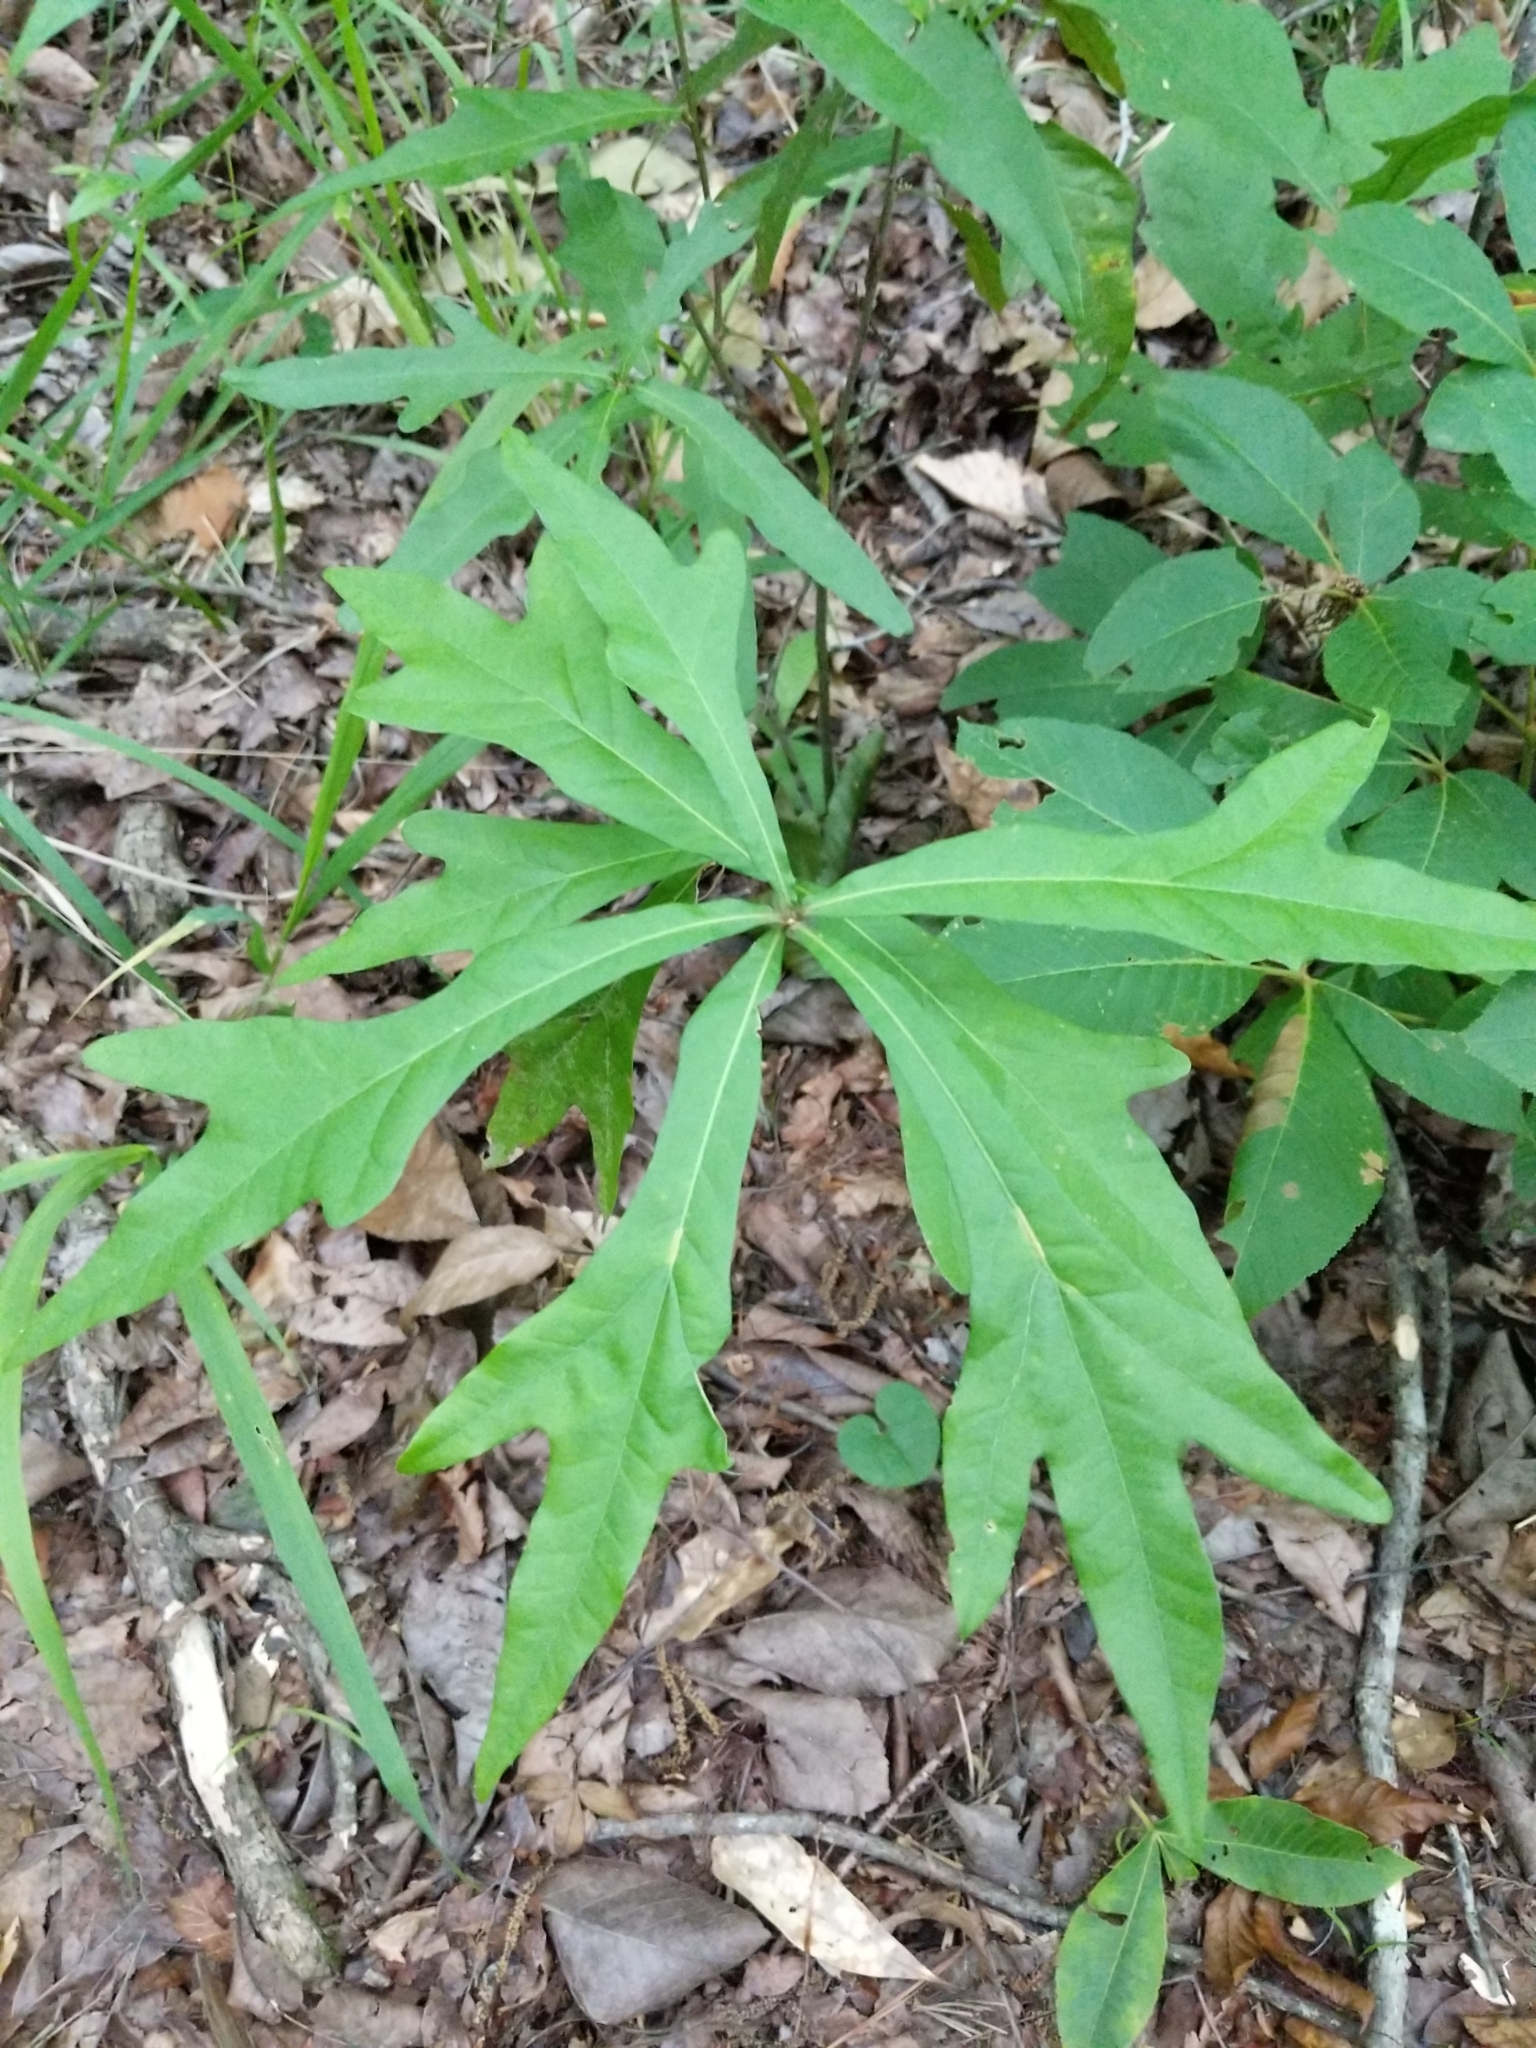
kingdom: Plantae
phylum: Tracheophyta
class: Magnoliopsida
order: Fagales
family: Fagaceae
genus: Quercus
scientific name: Quercus nigra
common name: Water oak
